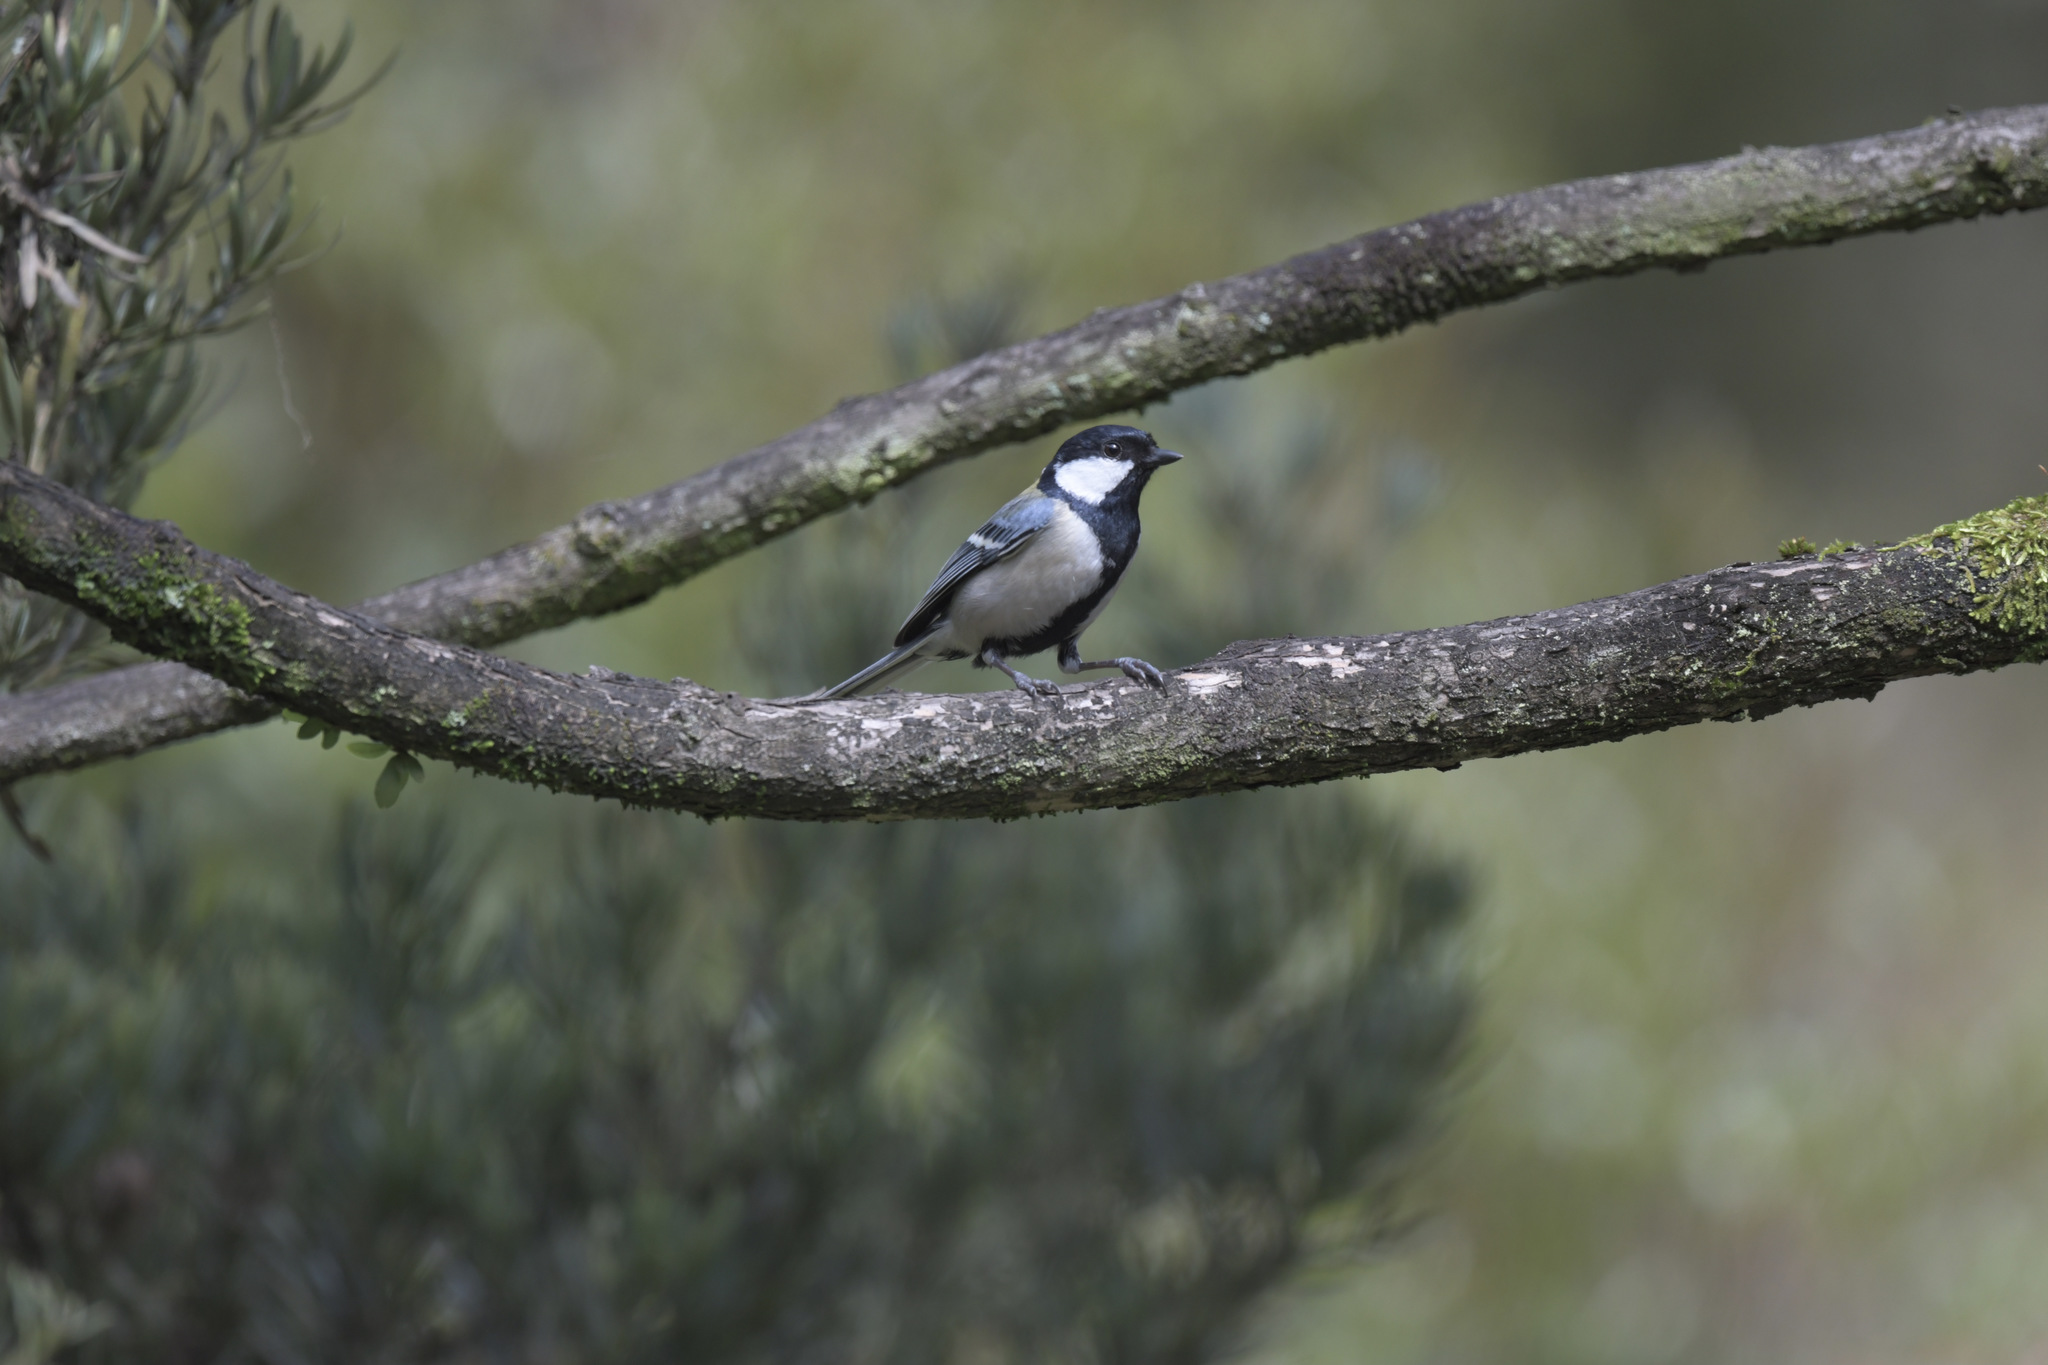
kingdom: Animalia
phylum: Chordata
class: Aves
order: Passeriformes
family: Paridae
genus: Parus
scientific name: Parus minor
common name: Japanese tit
